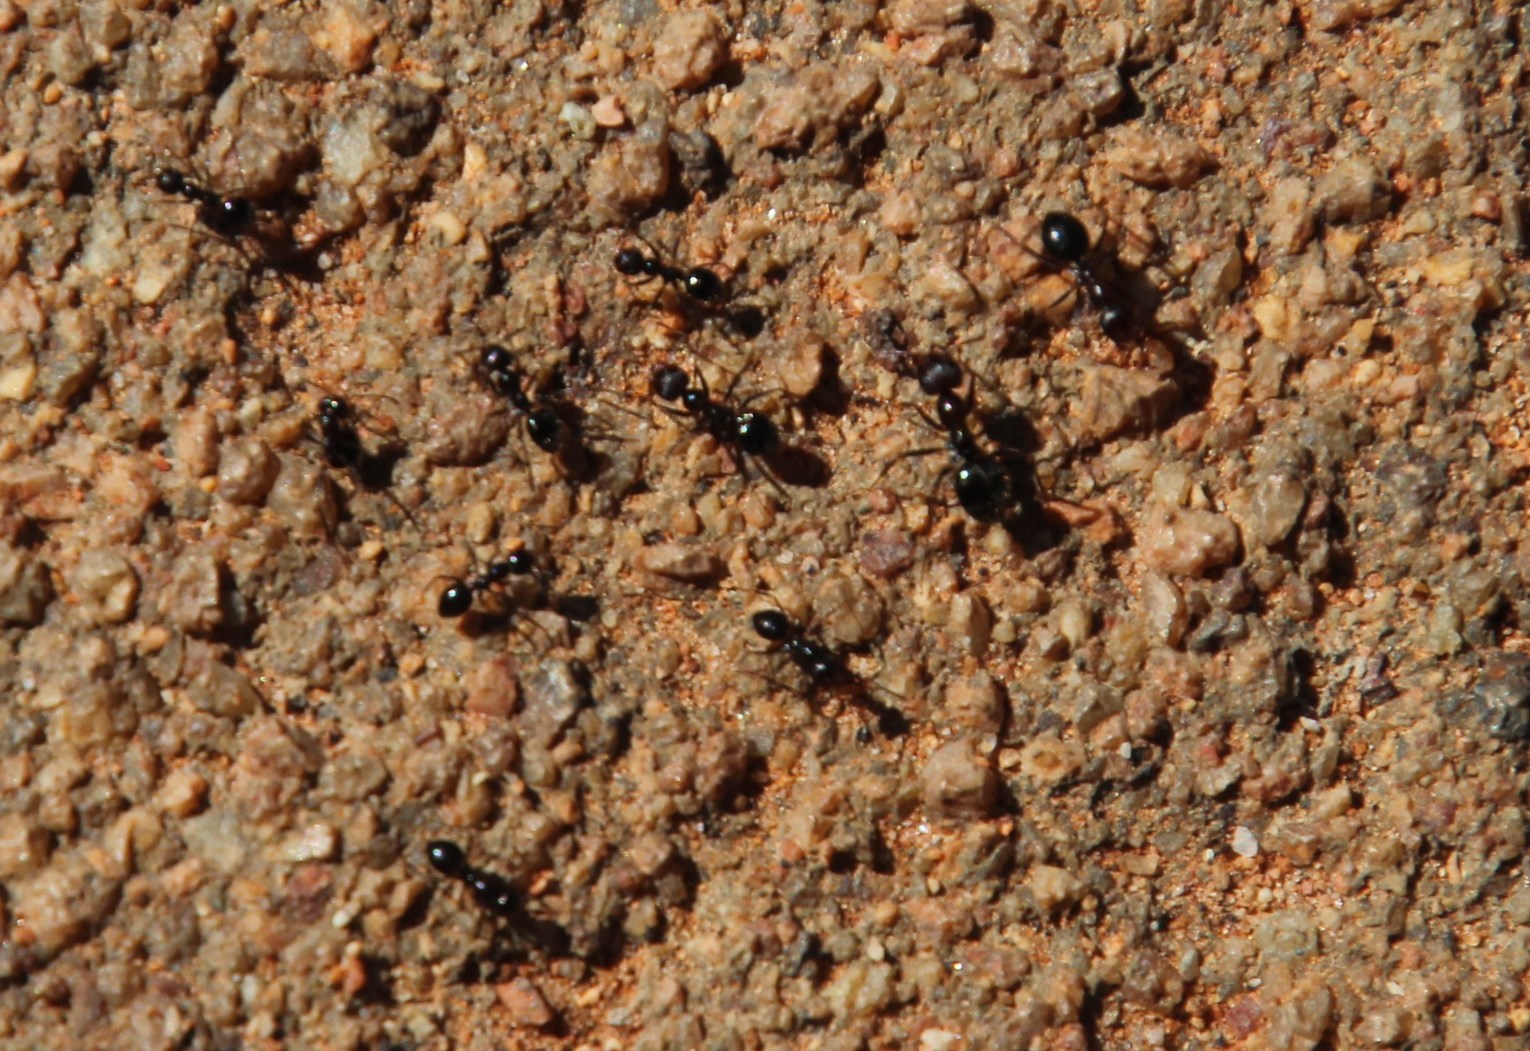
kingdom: Animalia
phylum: Arthropoda
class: Insecta
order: Hymenoptera
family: Formicidae
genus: Anoplolepis
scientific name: Anoplolepis steingroeveri
